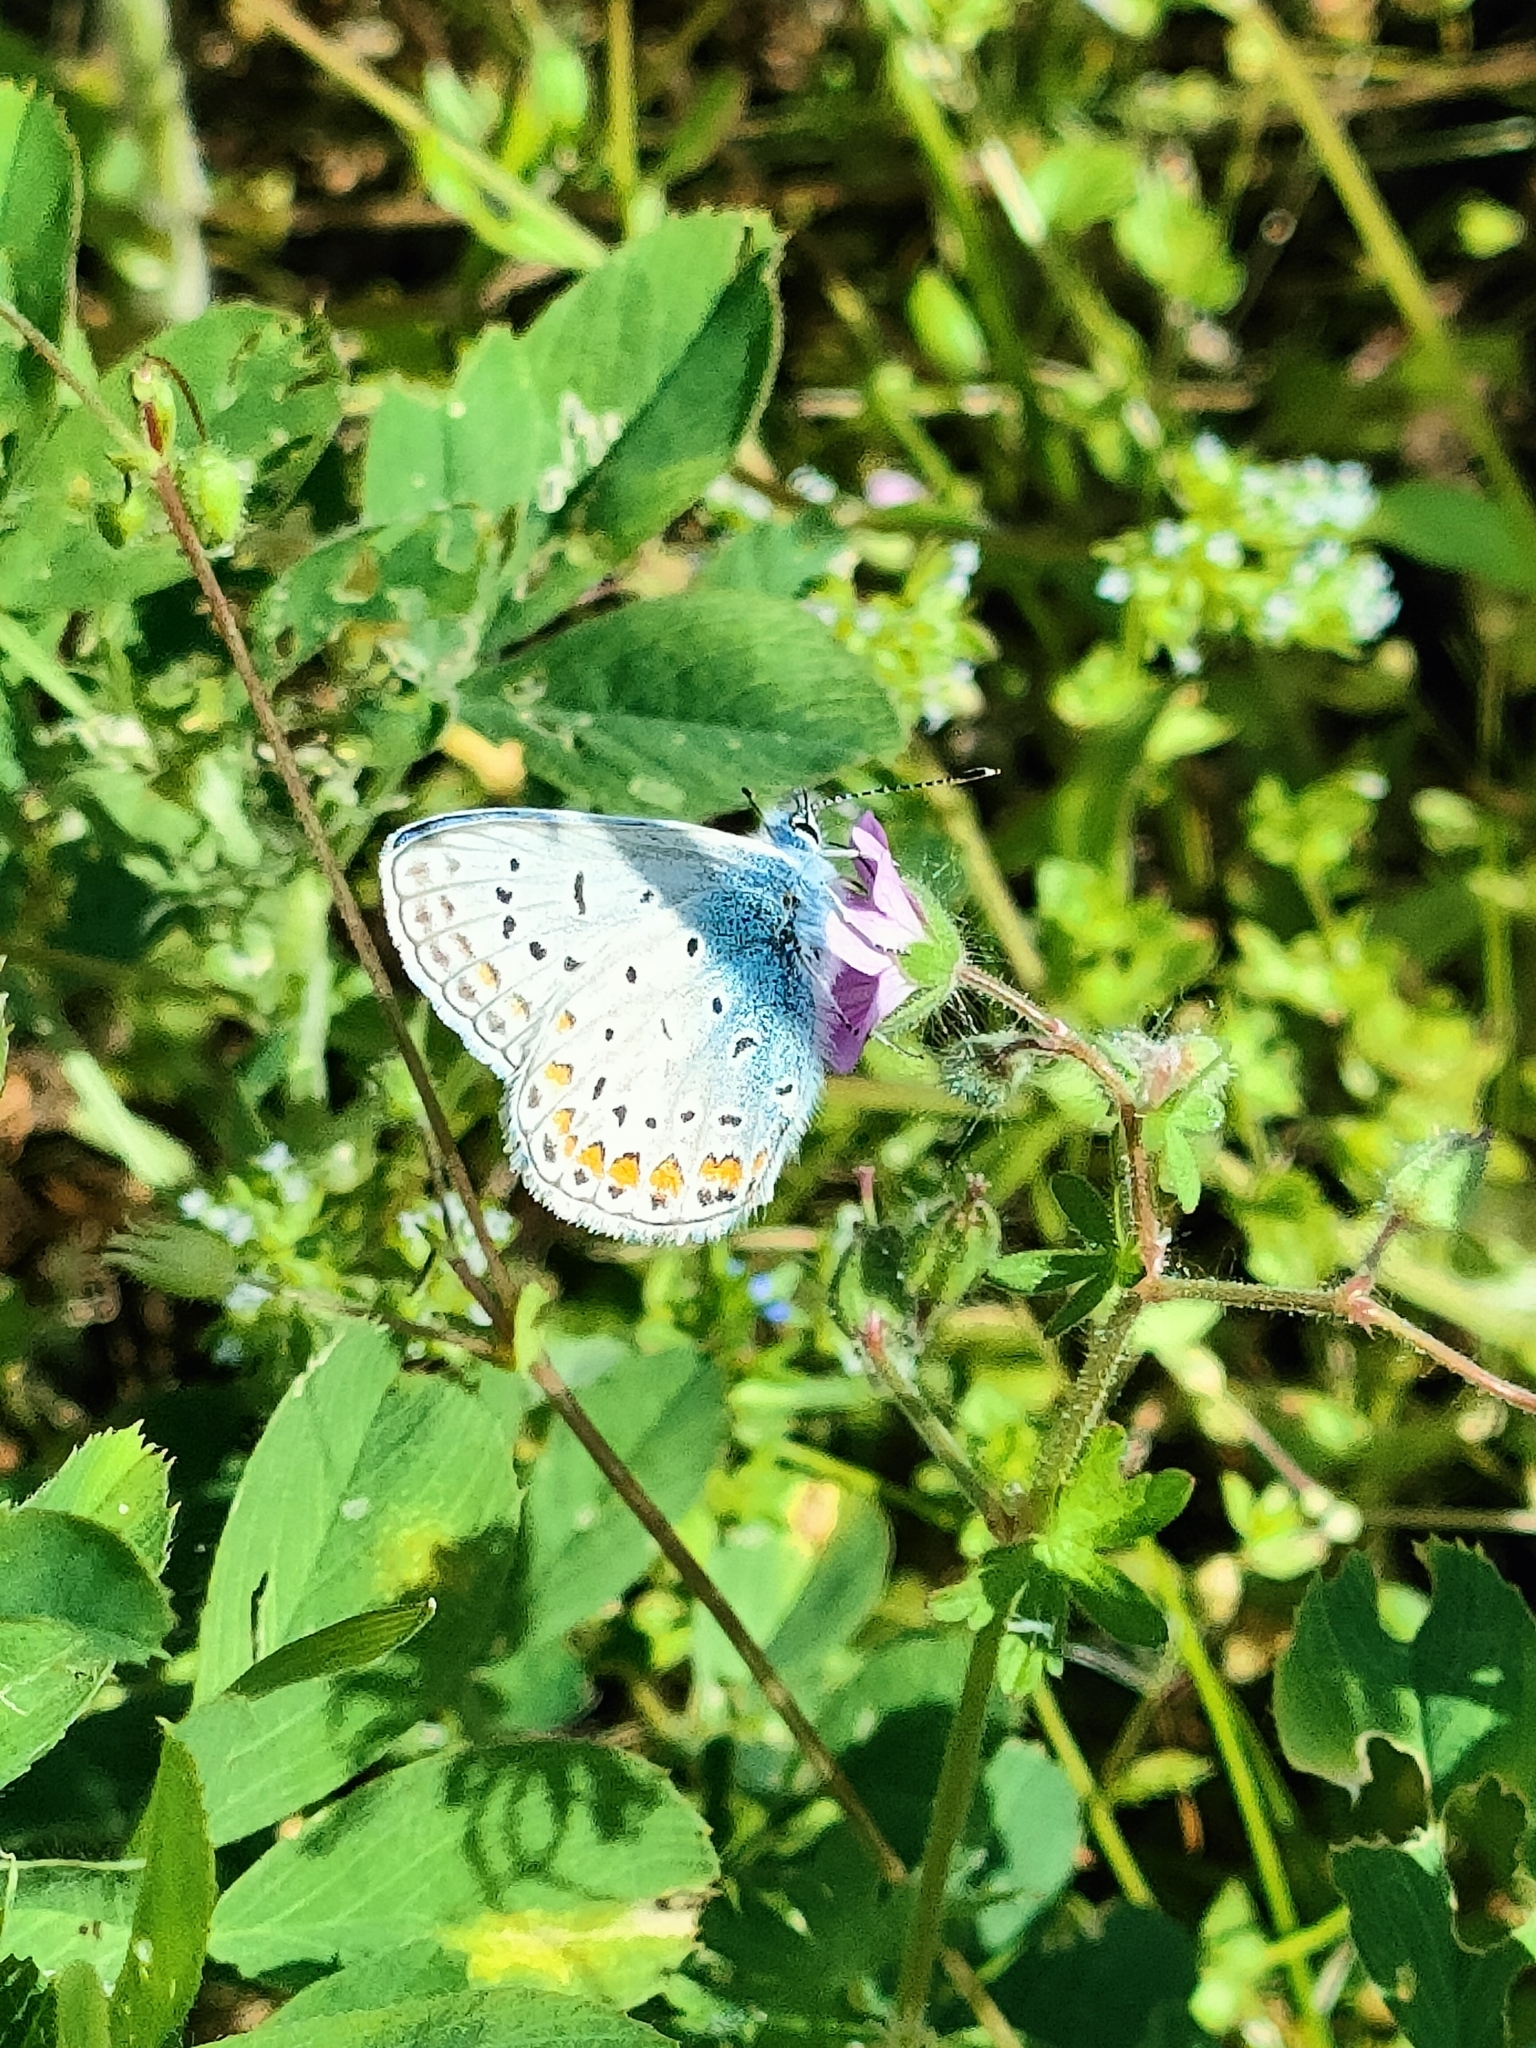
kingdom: Animalia
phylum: Arthropoda
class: Insecta
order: Lepidoptera
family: Lycaenidae
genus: Polyommatus
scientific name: Polyommatus icarus
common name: Common blue
